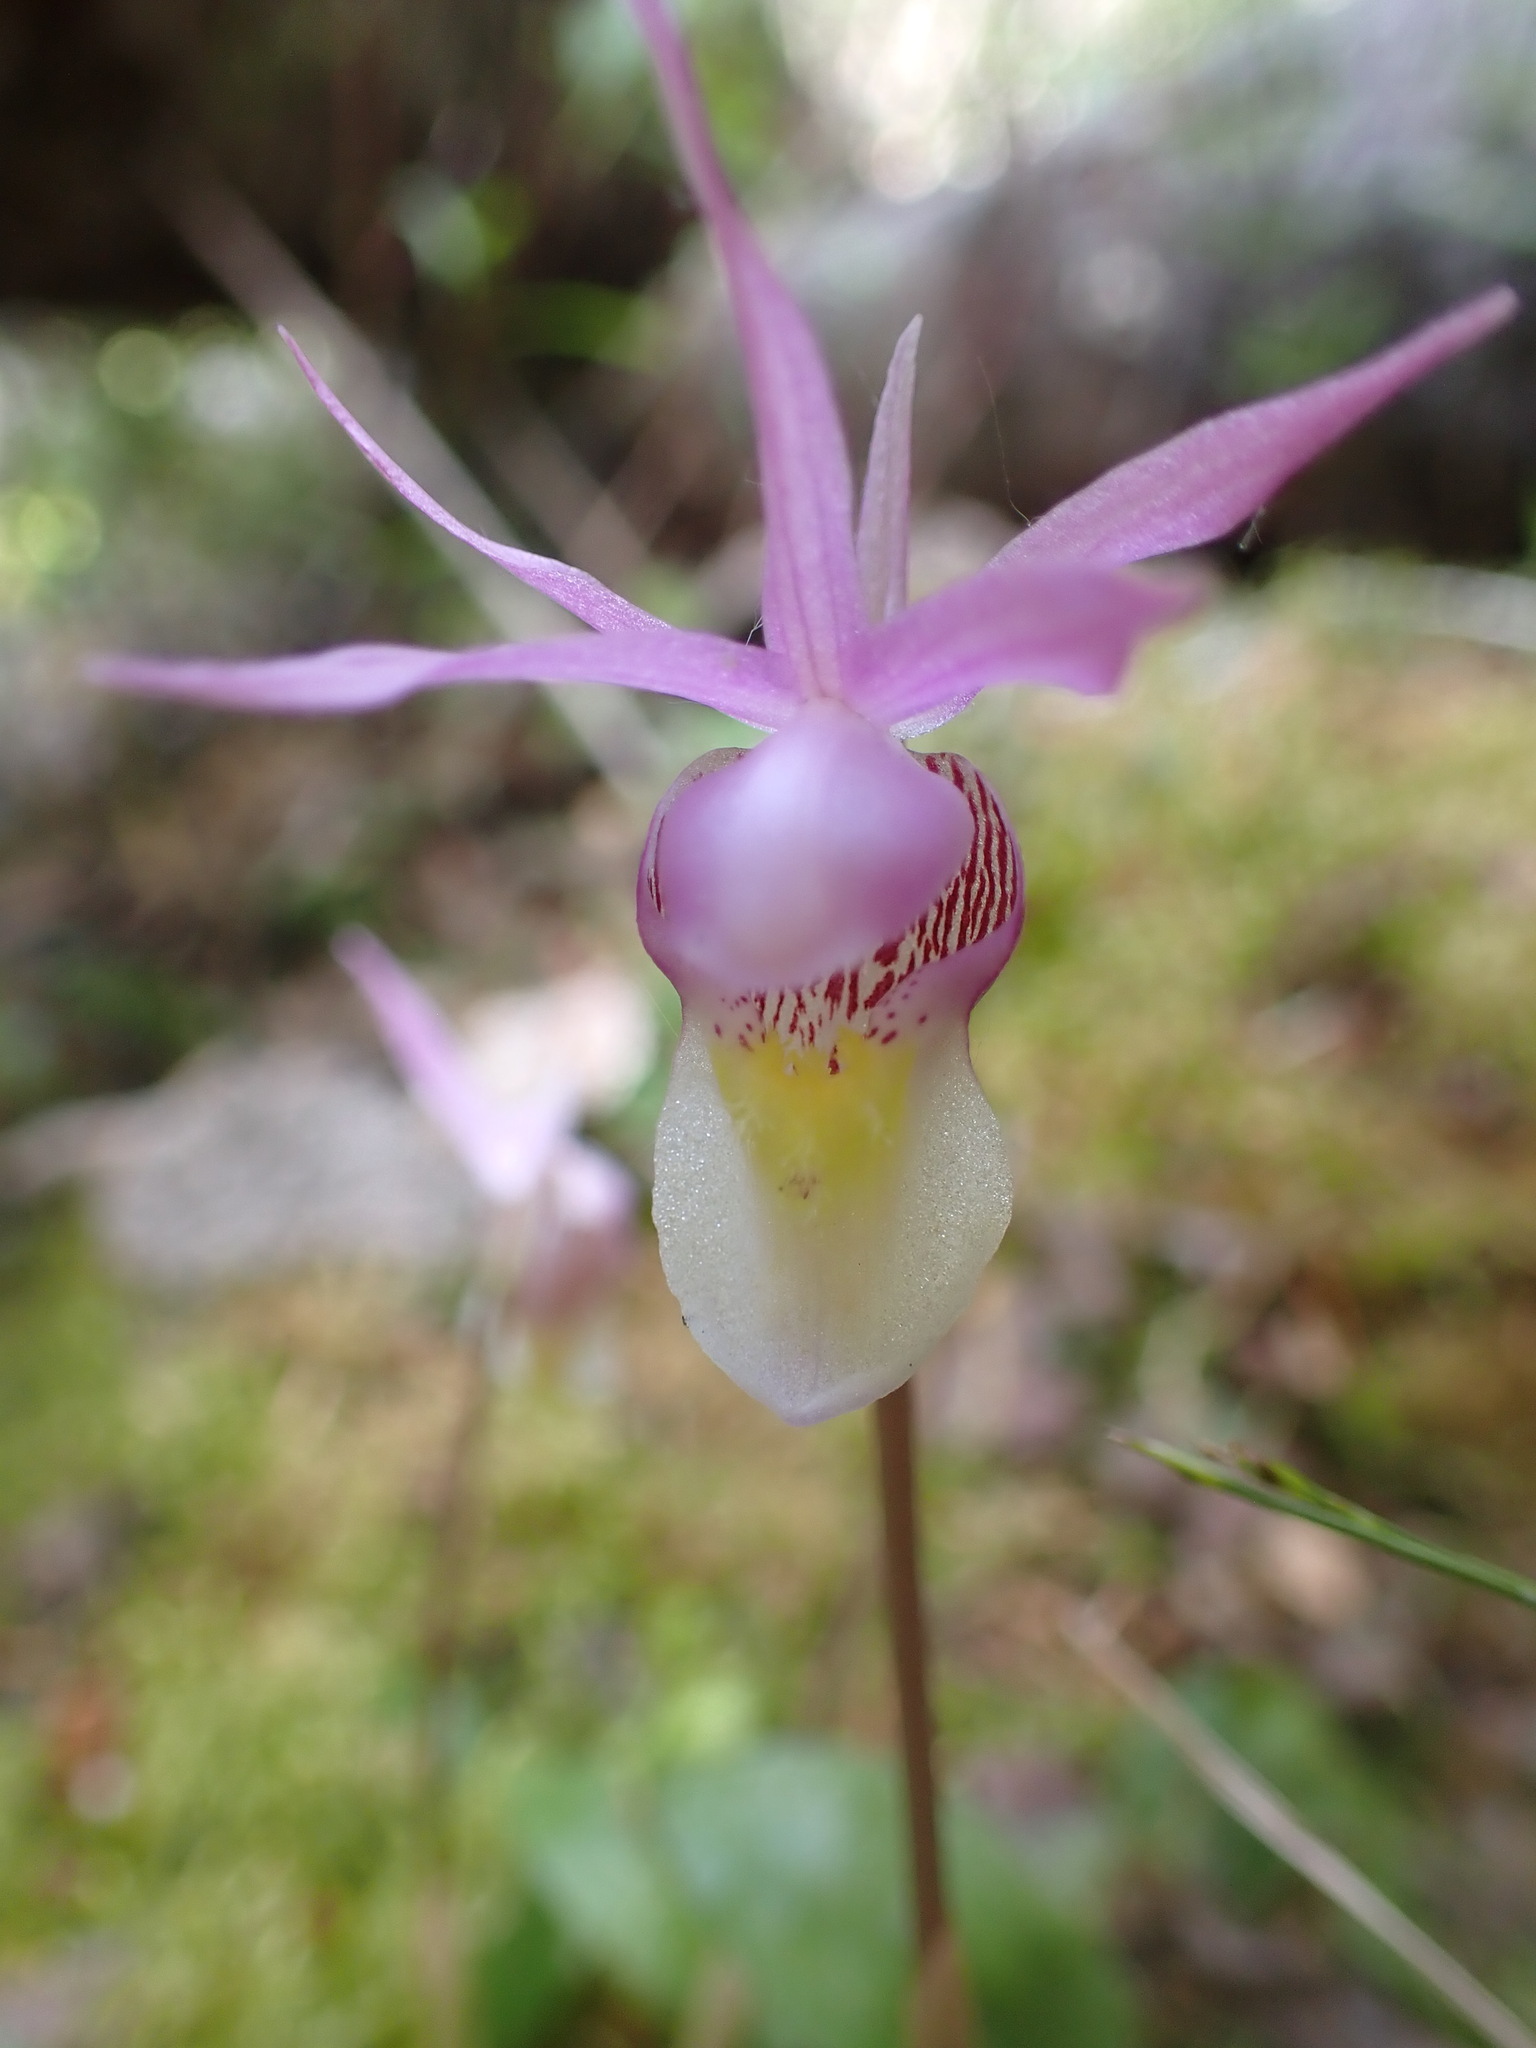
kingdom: Plantae
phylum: Tracheophyta
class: Liliopsida
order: Asparagales
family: Orchidaceae
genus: Calypso
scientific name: Calypso bulbosa
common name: Calypso
